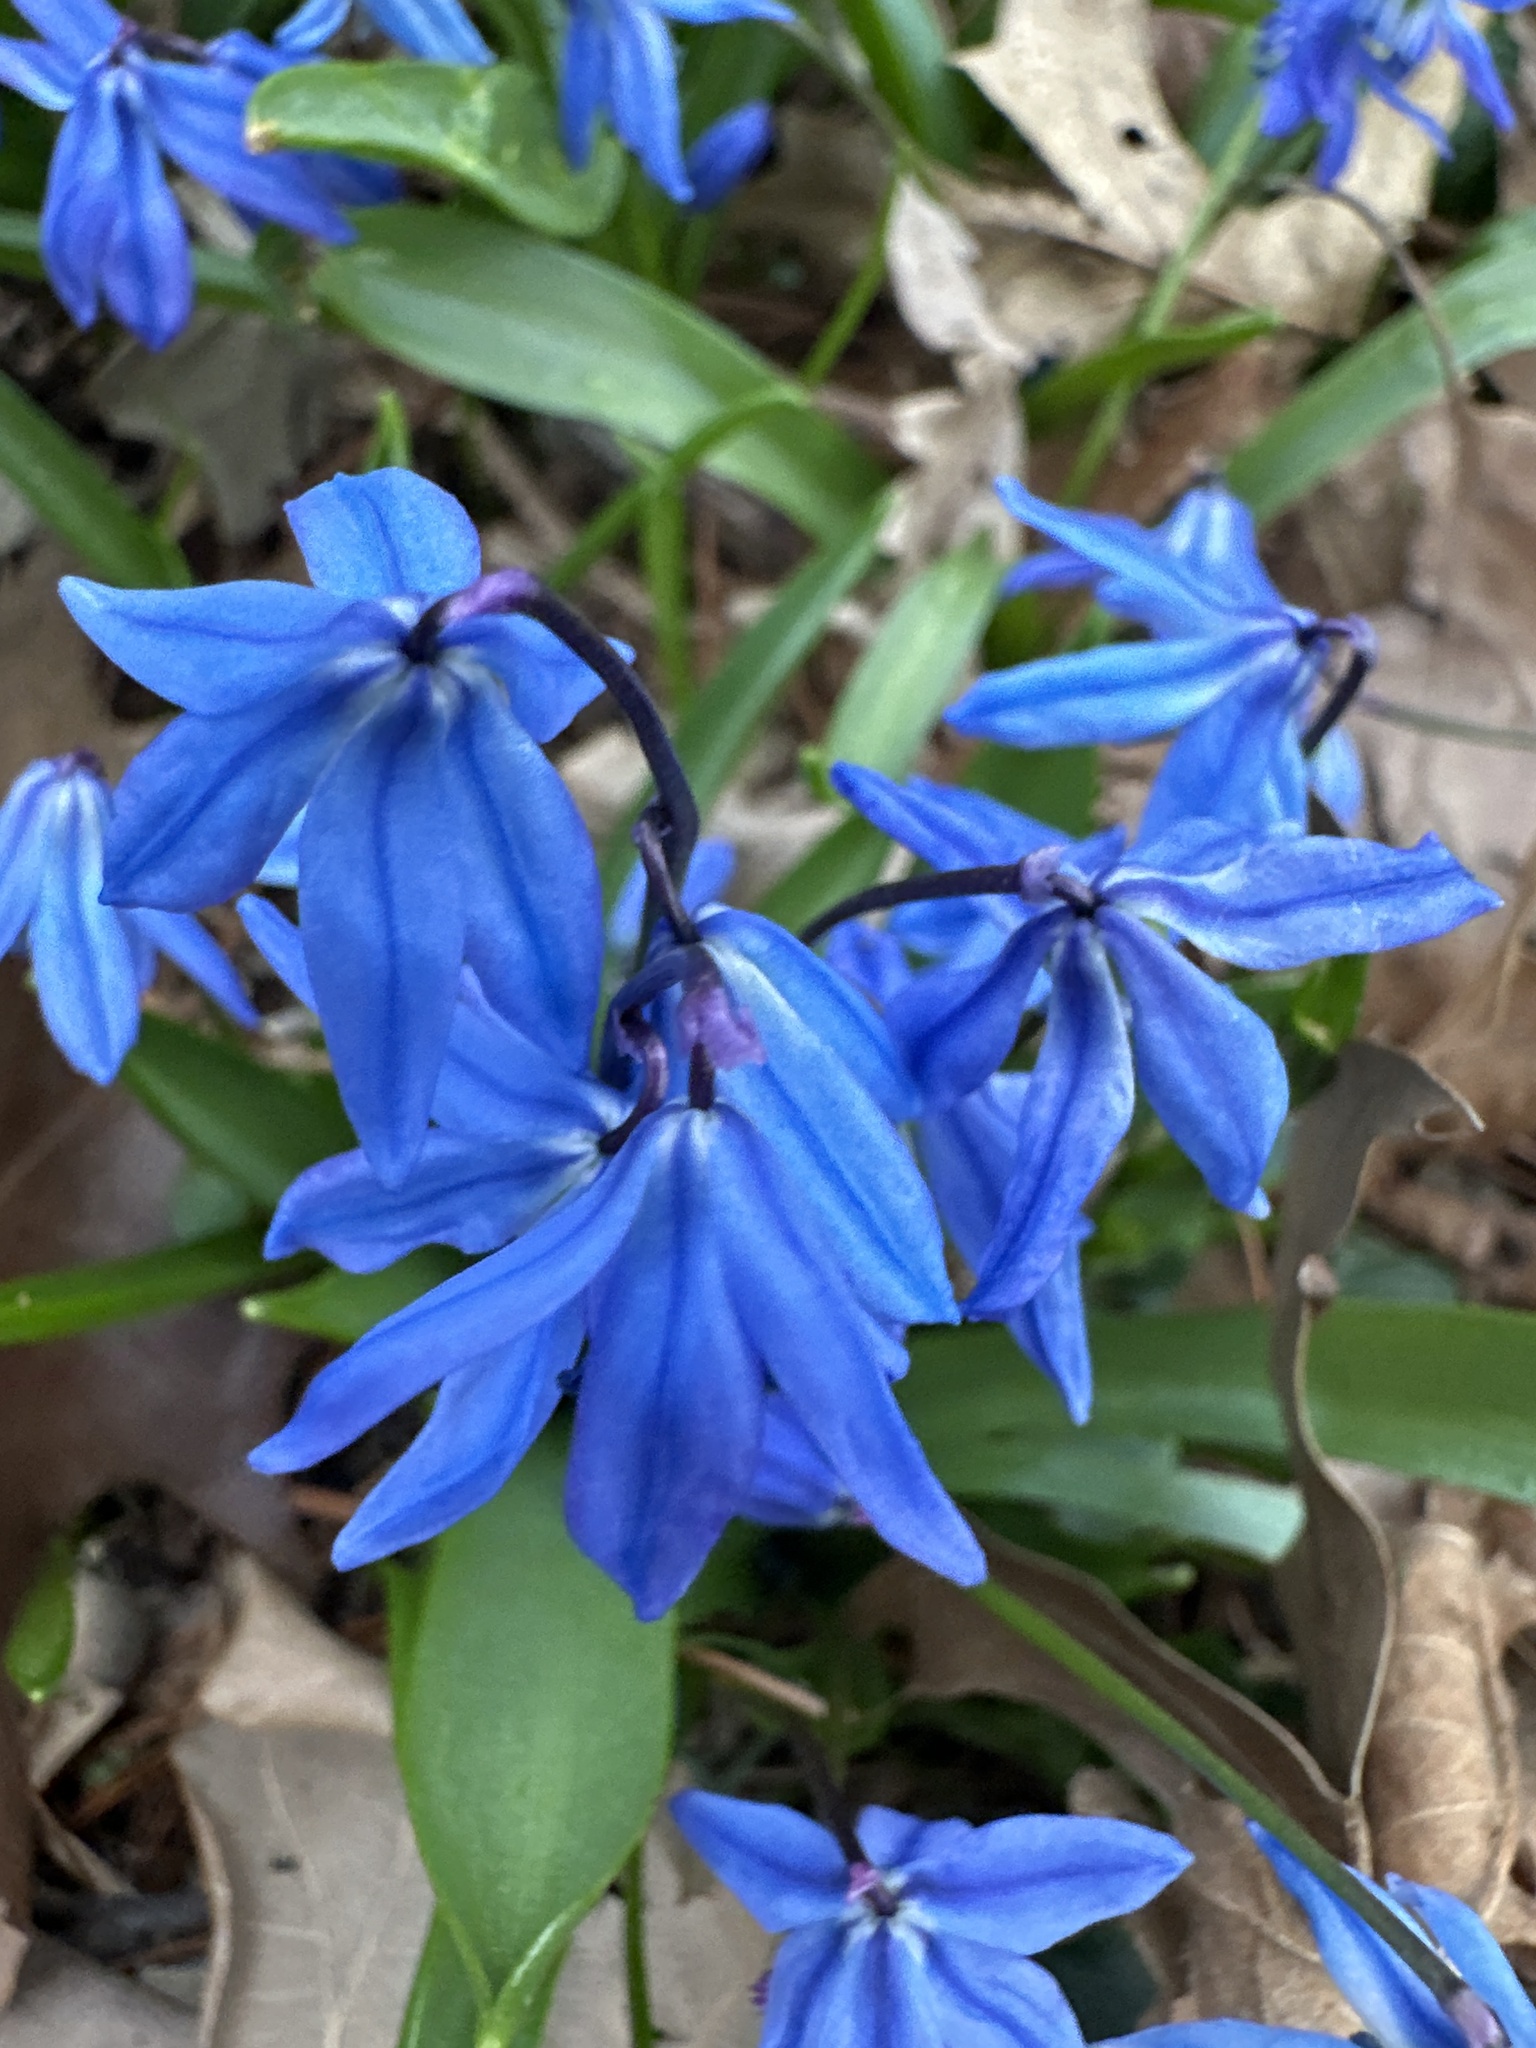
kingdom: Plantae
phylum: Tracheophyta
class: Liliopsida
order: Asparagales
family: Asparagaceae
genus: Scilla
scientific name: Scilla siberica
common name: Siberian squill
